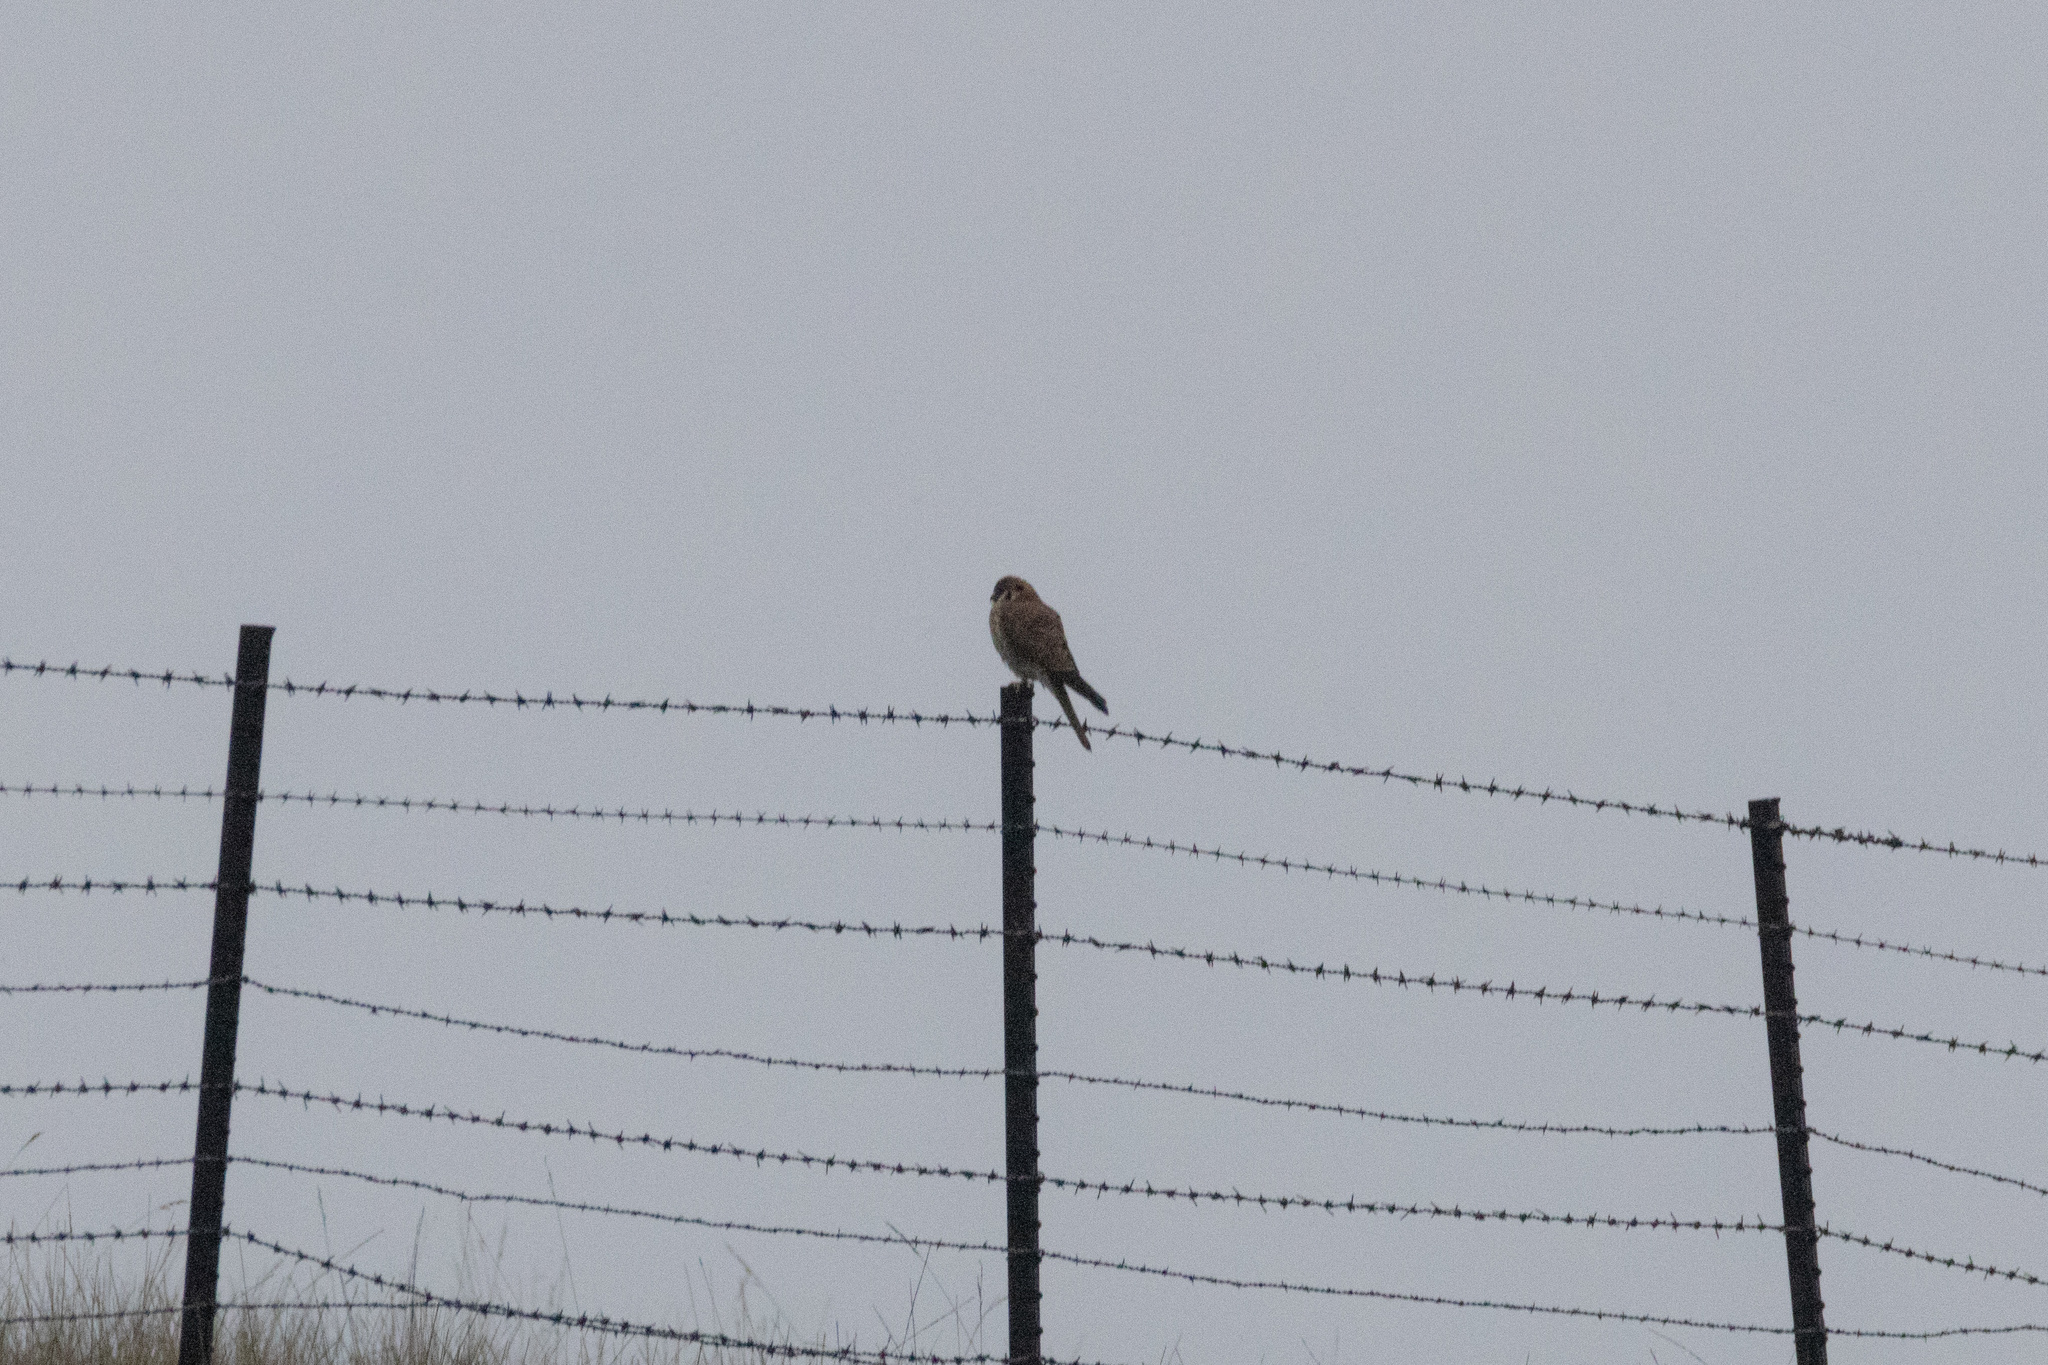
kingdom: Animalia
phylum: Chordata
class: Aves
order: Falconiformes
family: Falconidae
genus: Falco
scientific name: Falco sparverius
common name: American kestrel
